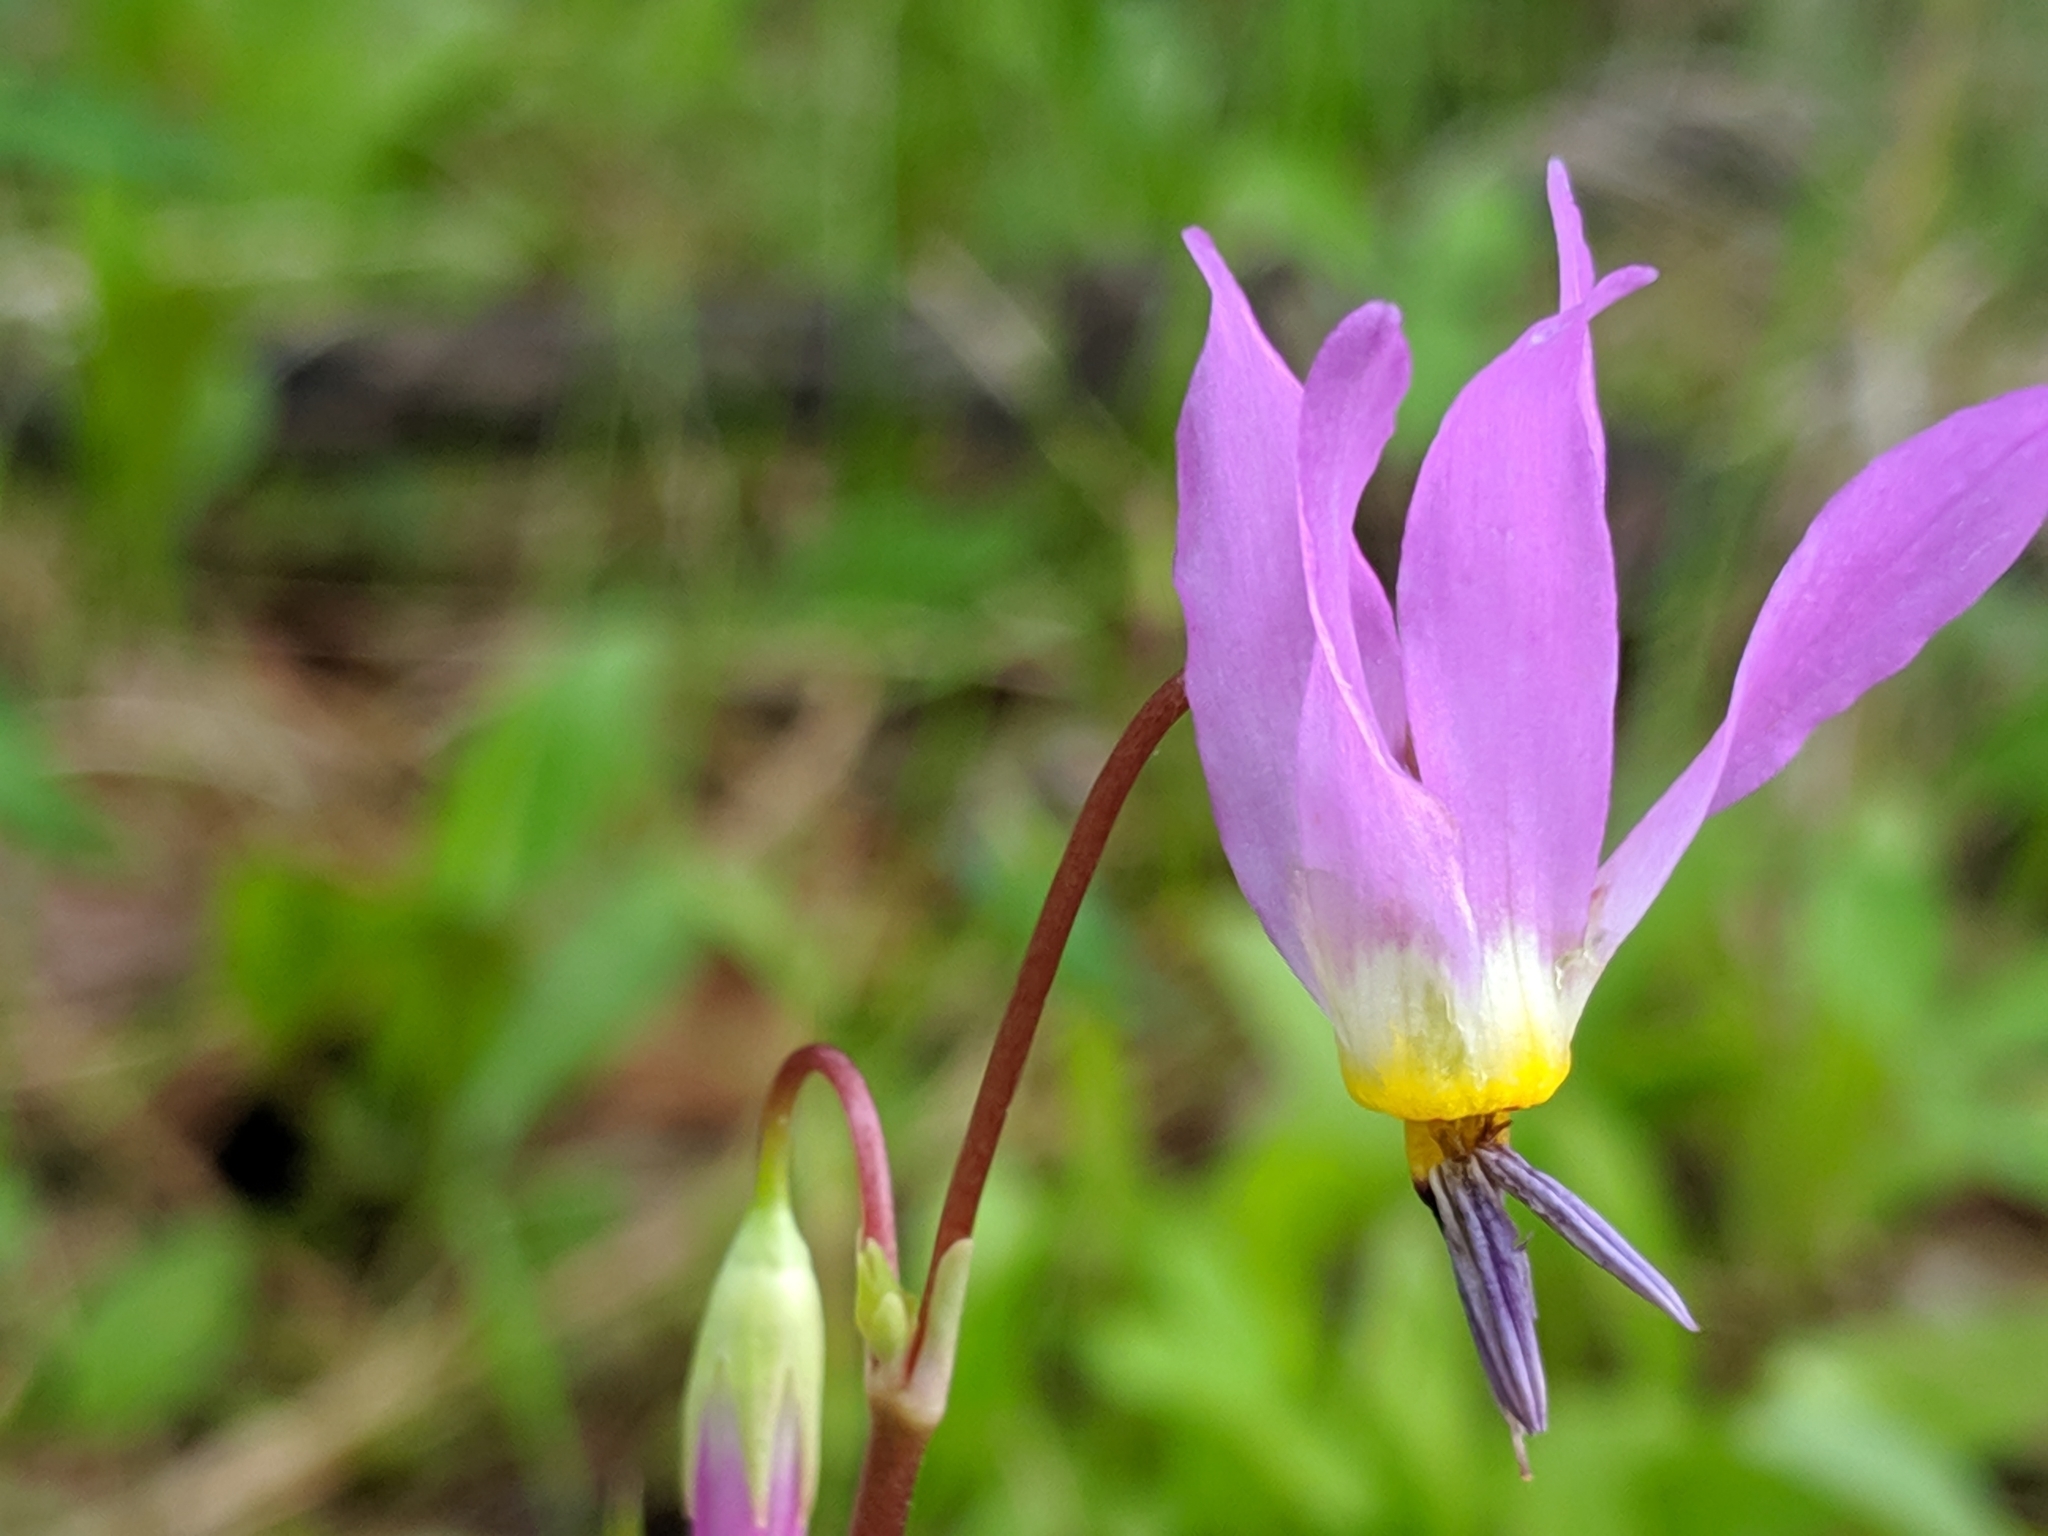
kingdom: Plantae
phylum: Tracheophyta
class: Magnoliopsida
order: Ericales
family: Primulaceae
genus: Dodecatheon
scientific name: Dodecatheon pulchellum
